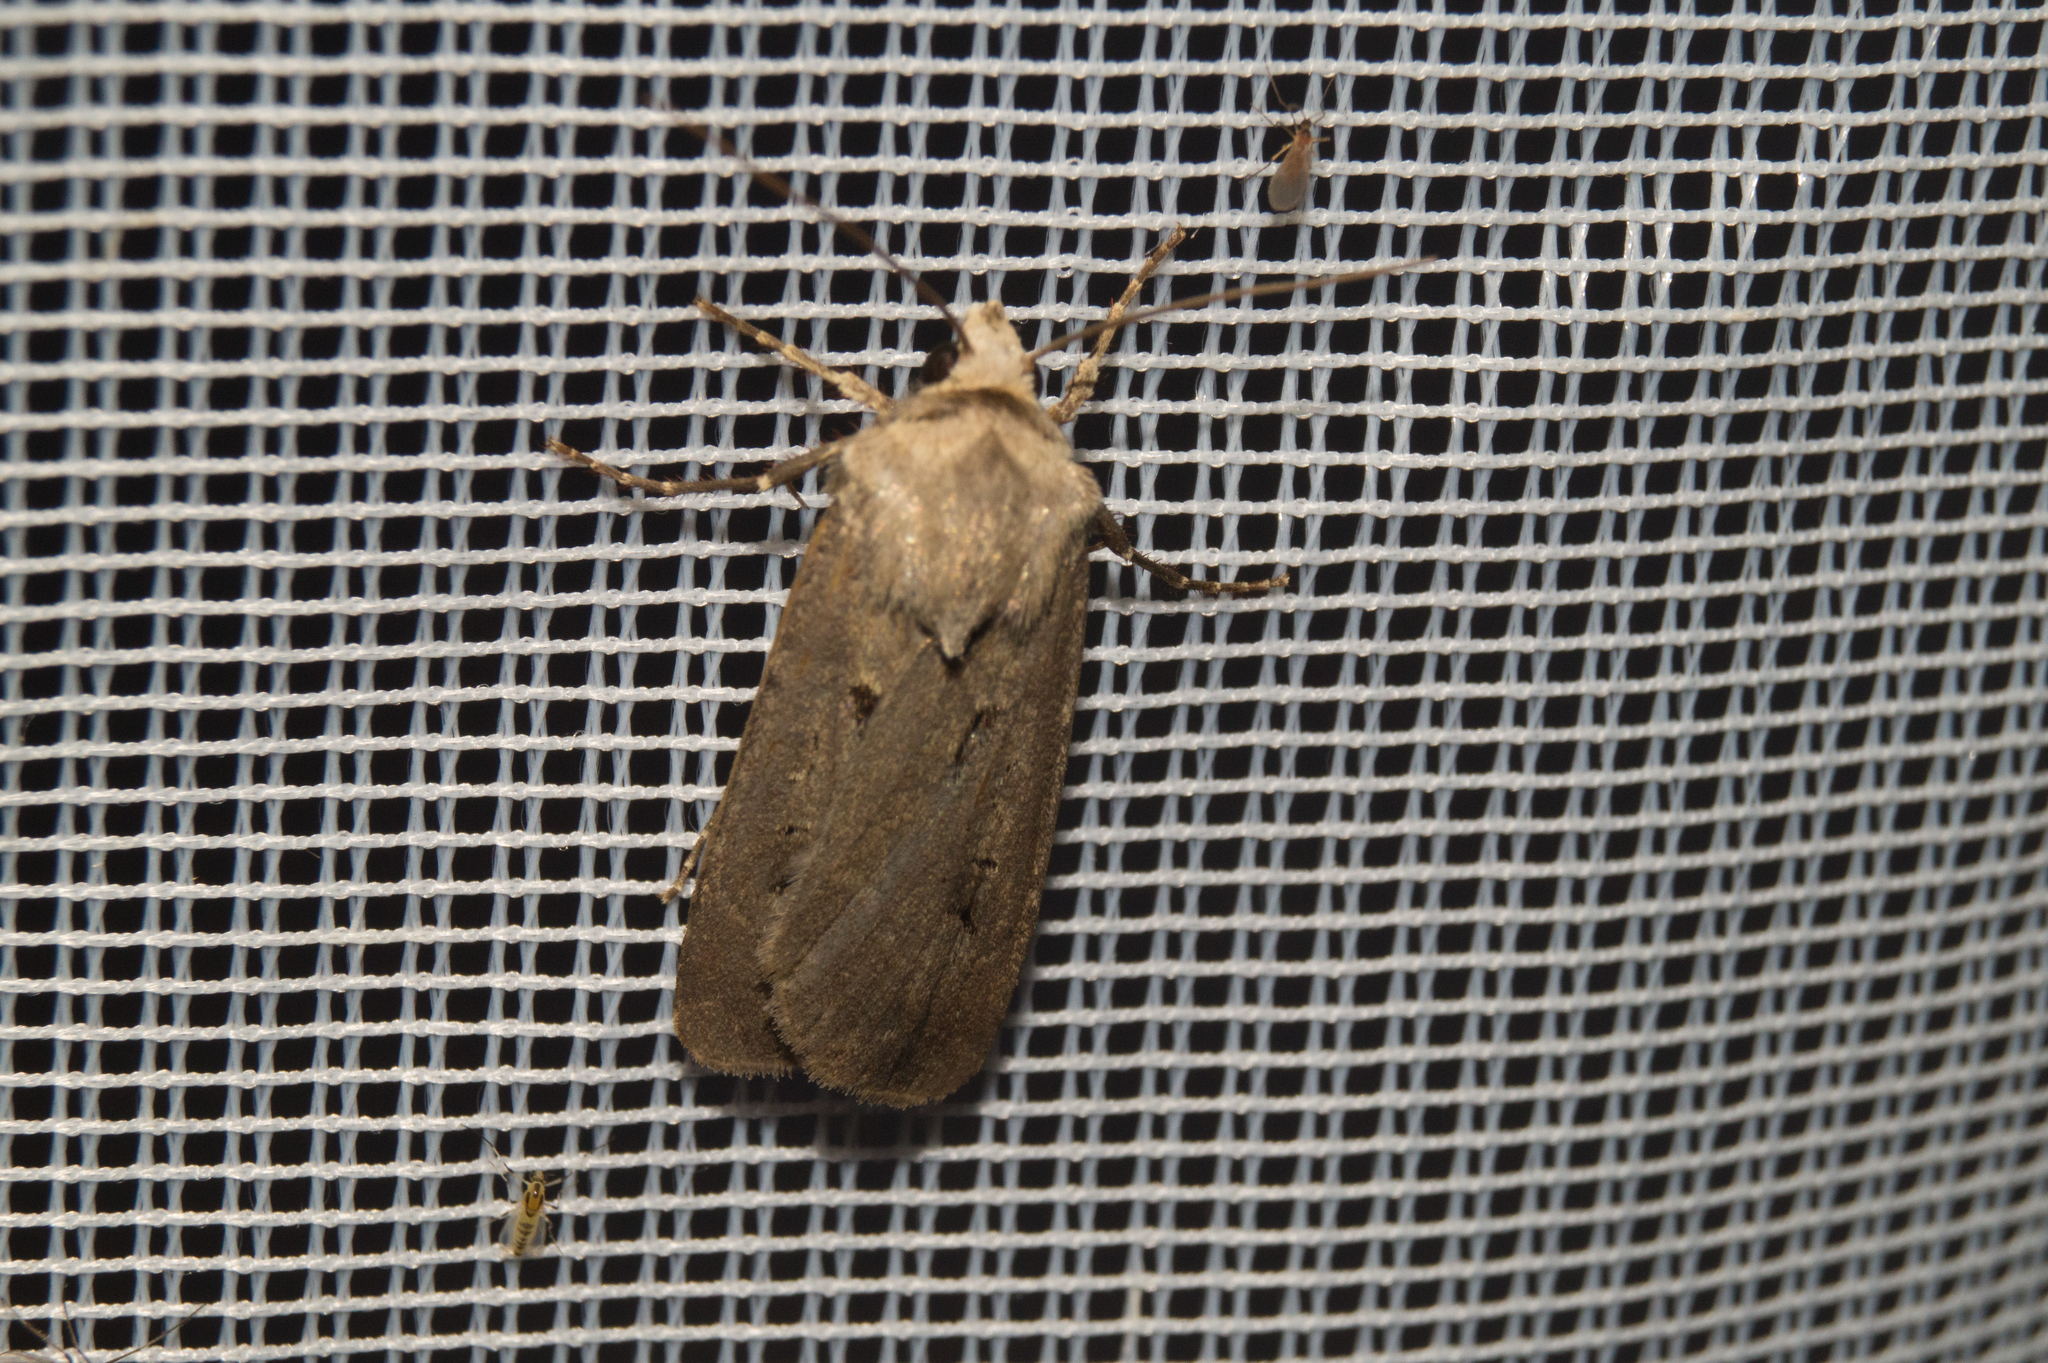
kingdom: Animalia
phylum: Arthropoda
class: Insecta
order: Lepidoptera
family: Noctuidae
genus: Agrotis
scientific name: Agrotis exclamationis
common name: Heart and dart
